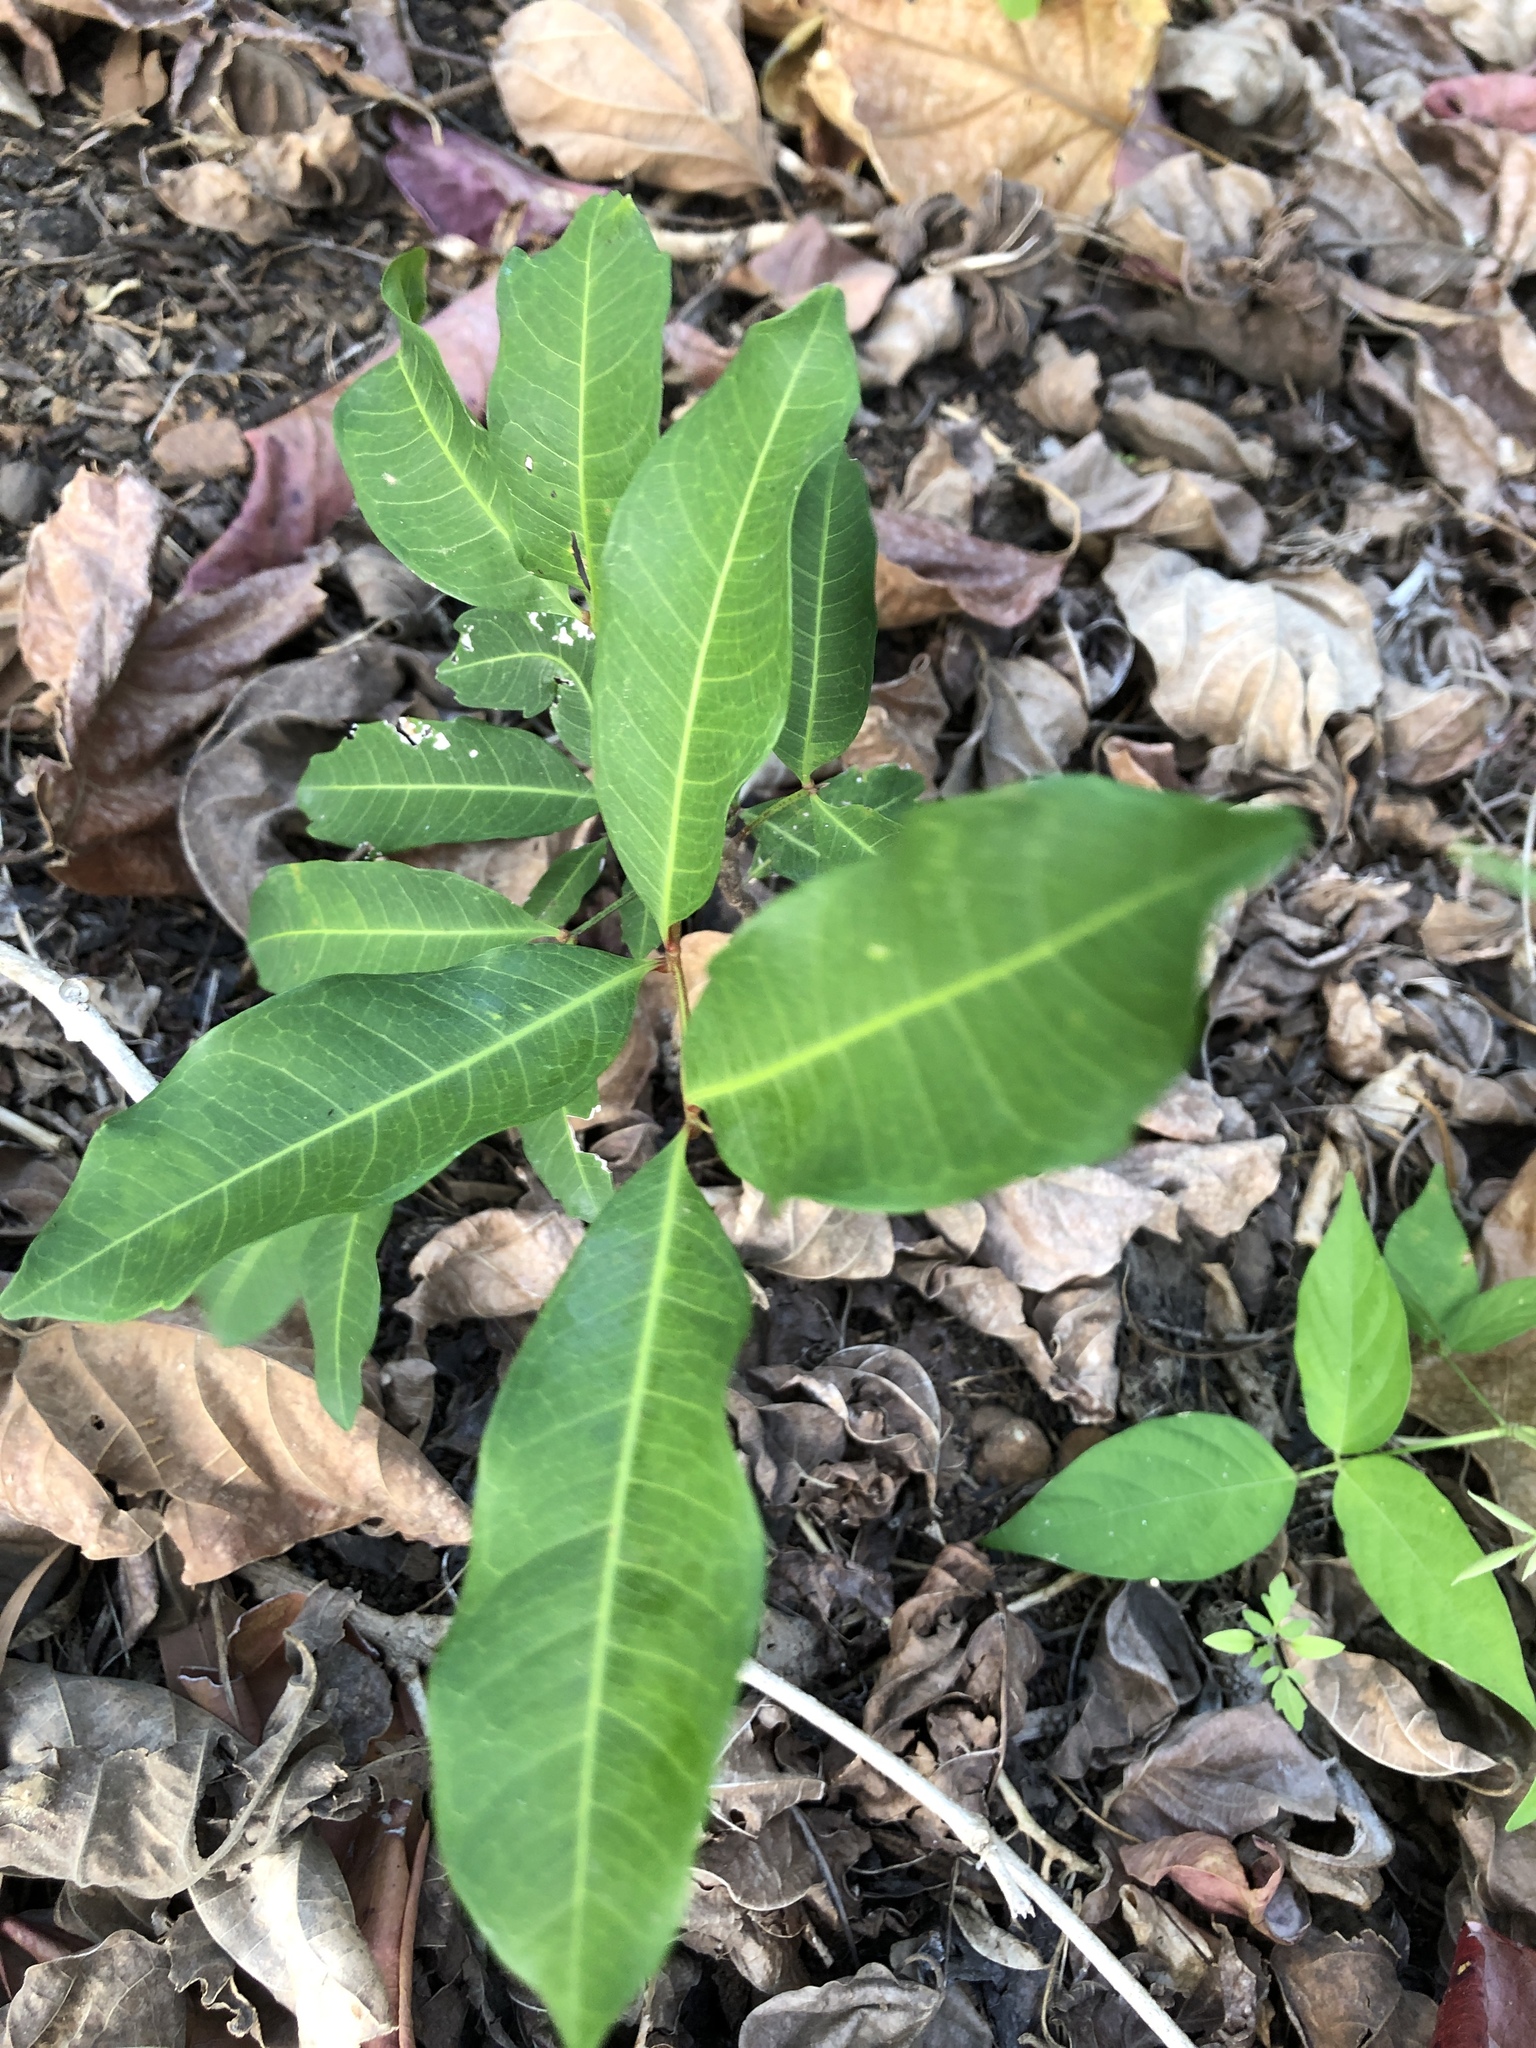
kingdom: Plantae
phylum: Tracheophyta
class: Magnoliopsida
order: Sapindales
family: Sapindaceae
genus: Cupaniopsis
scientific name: Cupaniopsis anacardioides
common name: Carrotwood
